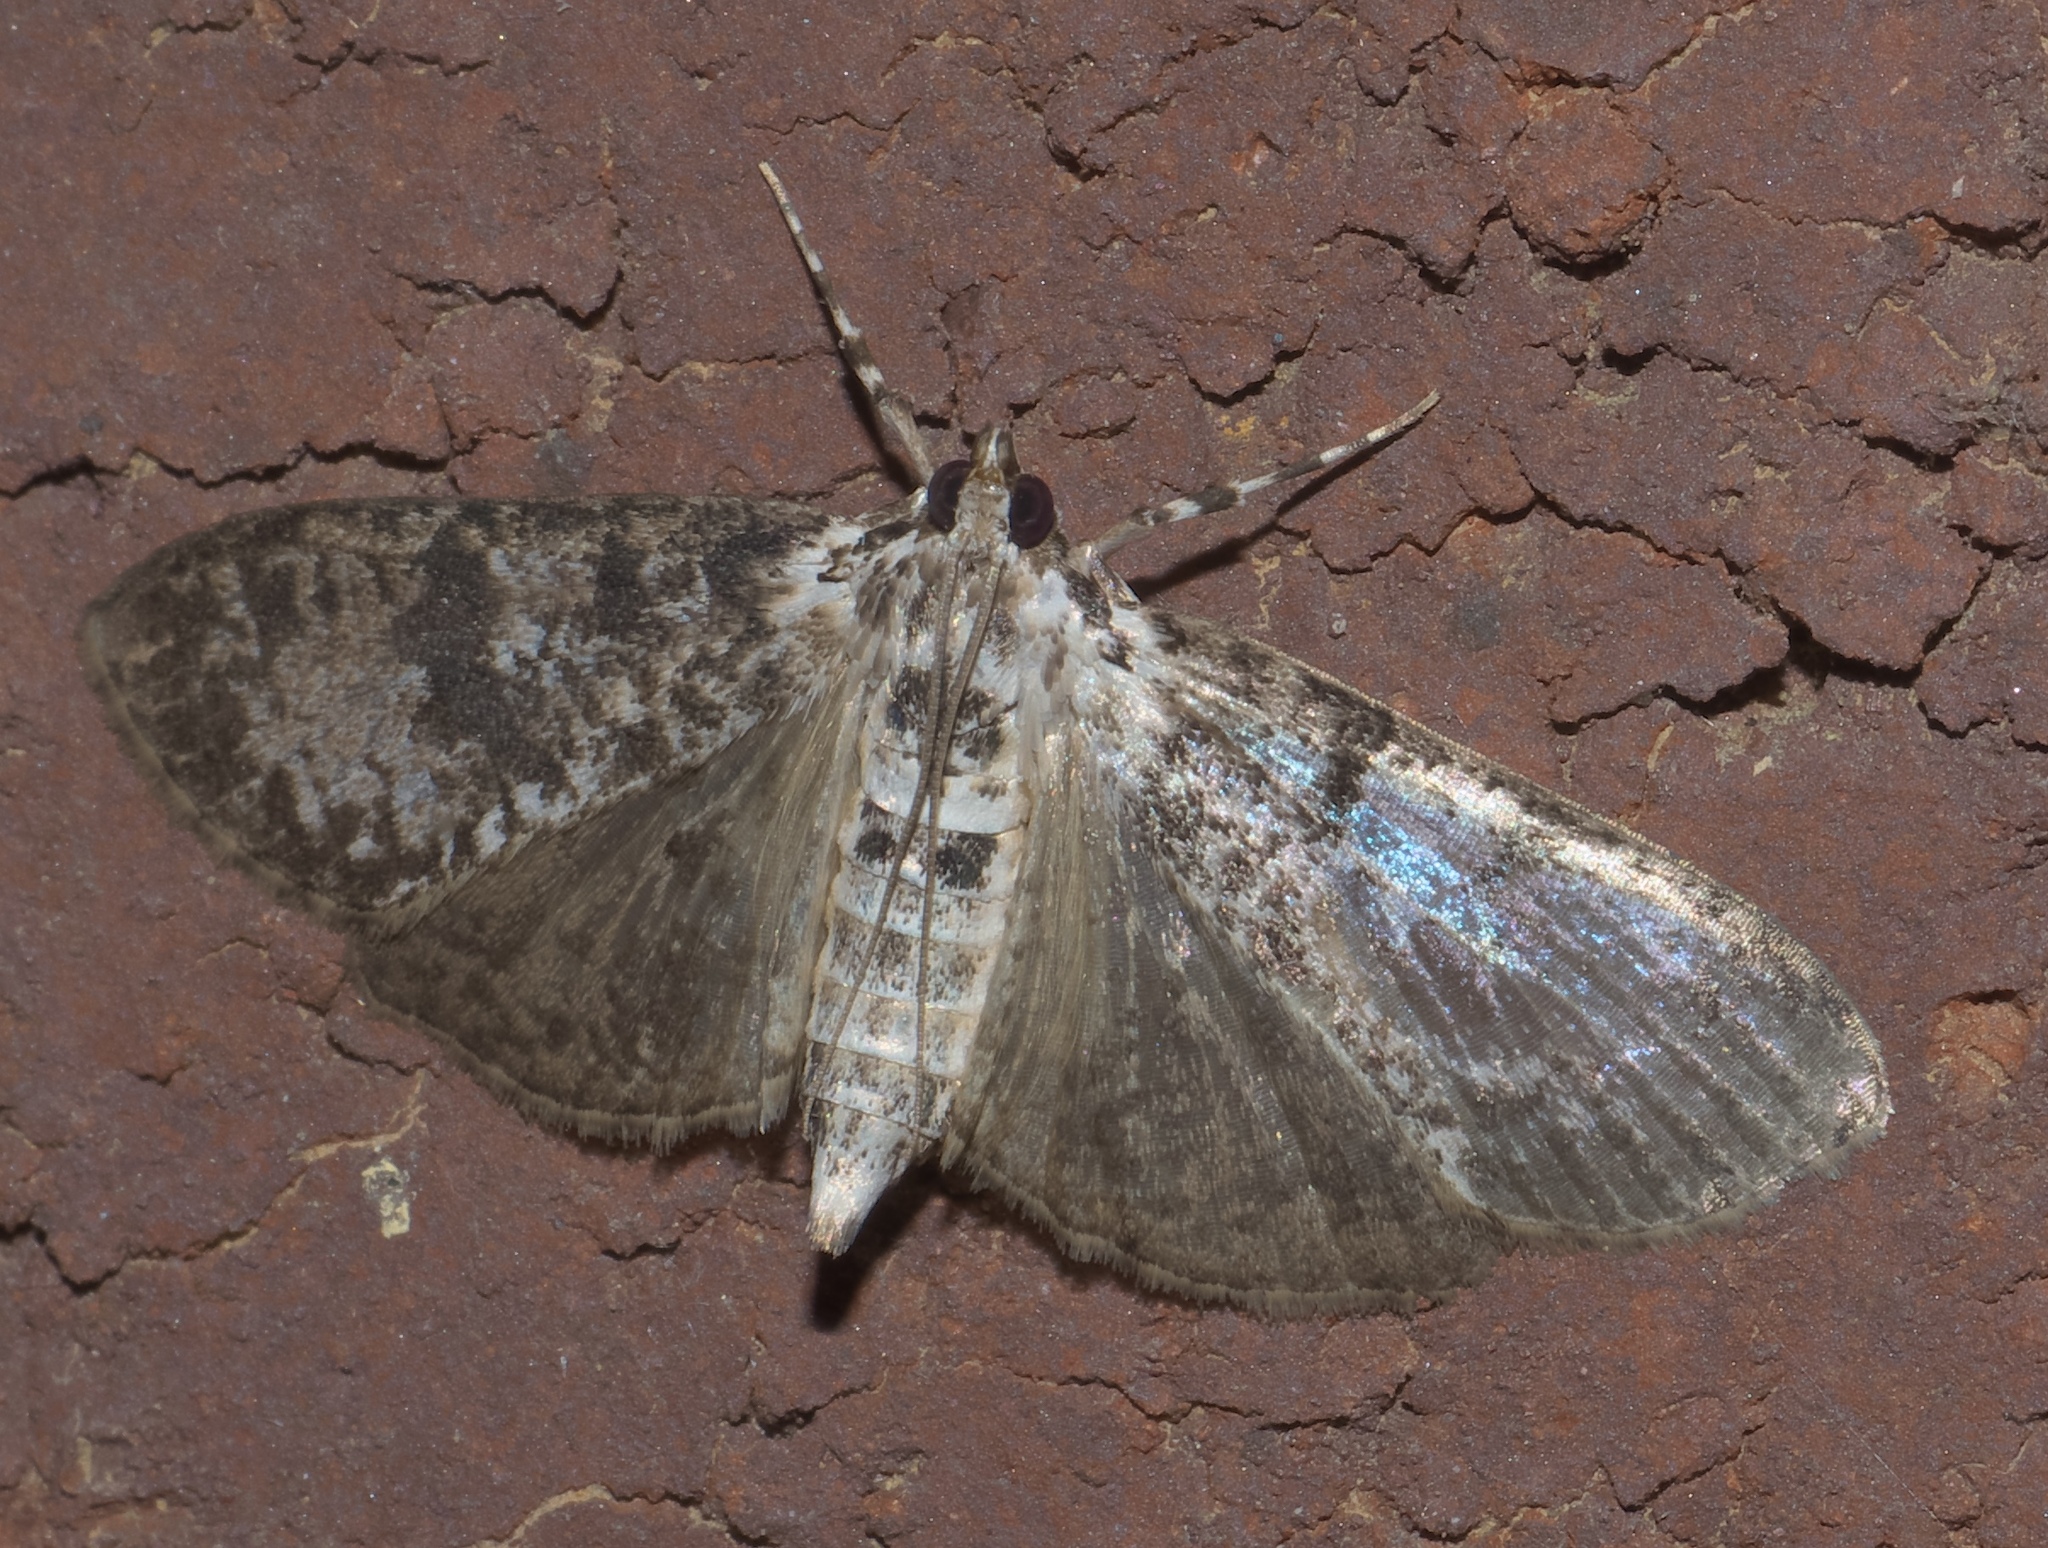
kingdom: Animalia
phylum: Arthropoda
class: Insecta
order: Lepidoptera
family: Crambidae
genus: Palpita
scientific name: Palpita magniferalis
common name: Splendid palpita moth
